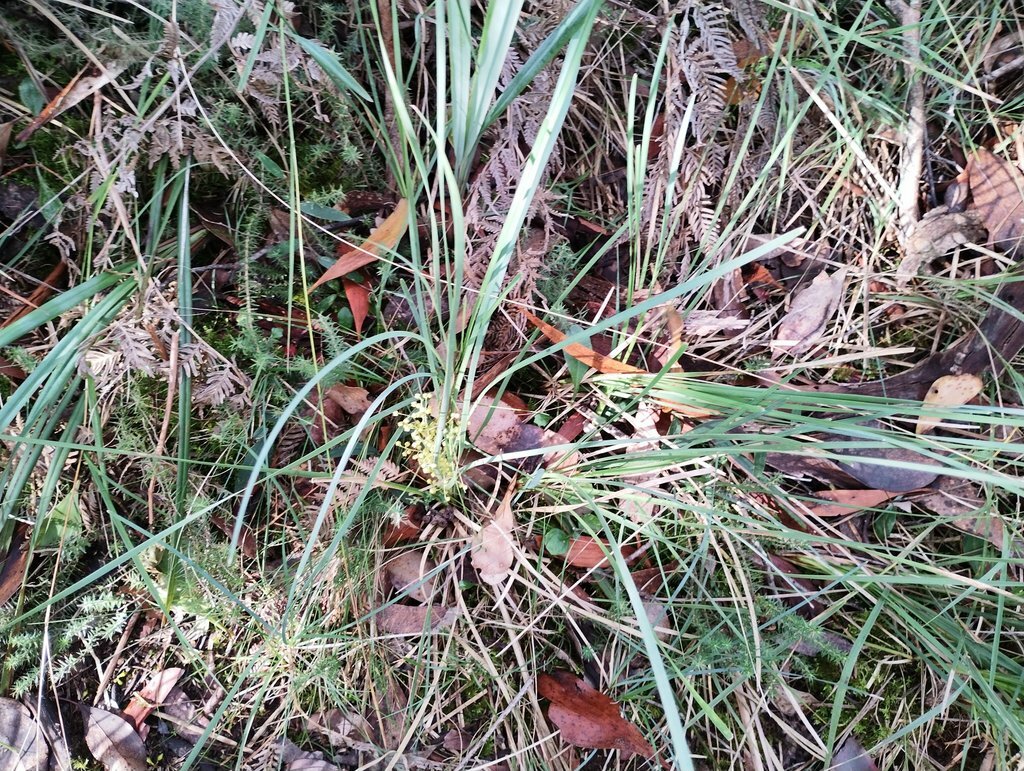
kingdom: Plantae
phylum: Tracheophyta
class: Liliopsida
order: Asparagales
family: Asparagaceae
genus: Lomandra
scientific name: Lomandra filiformis
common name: Wattle mat-rush
